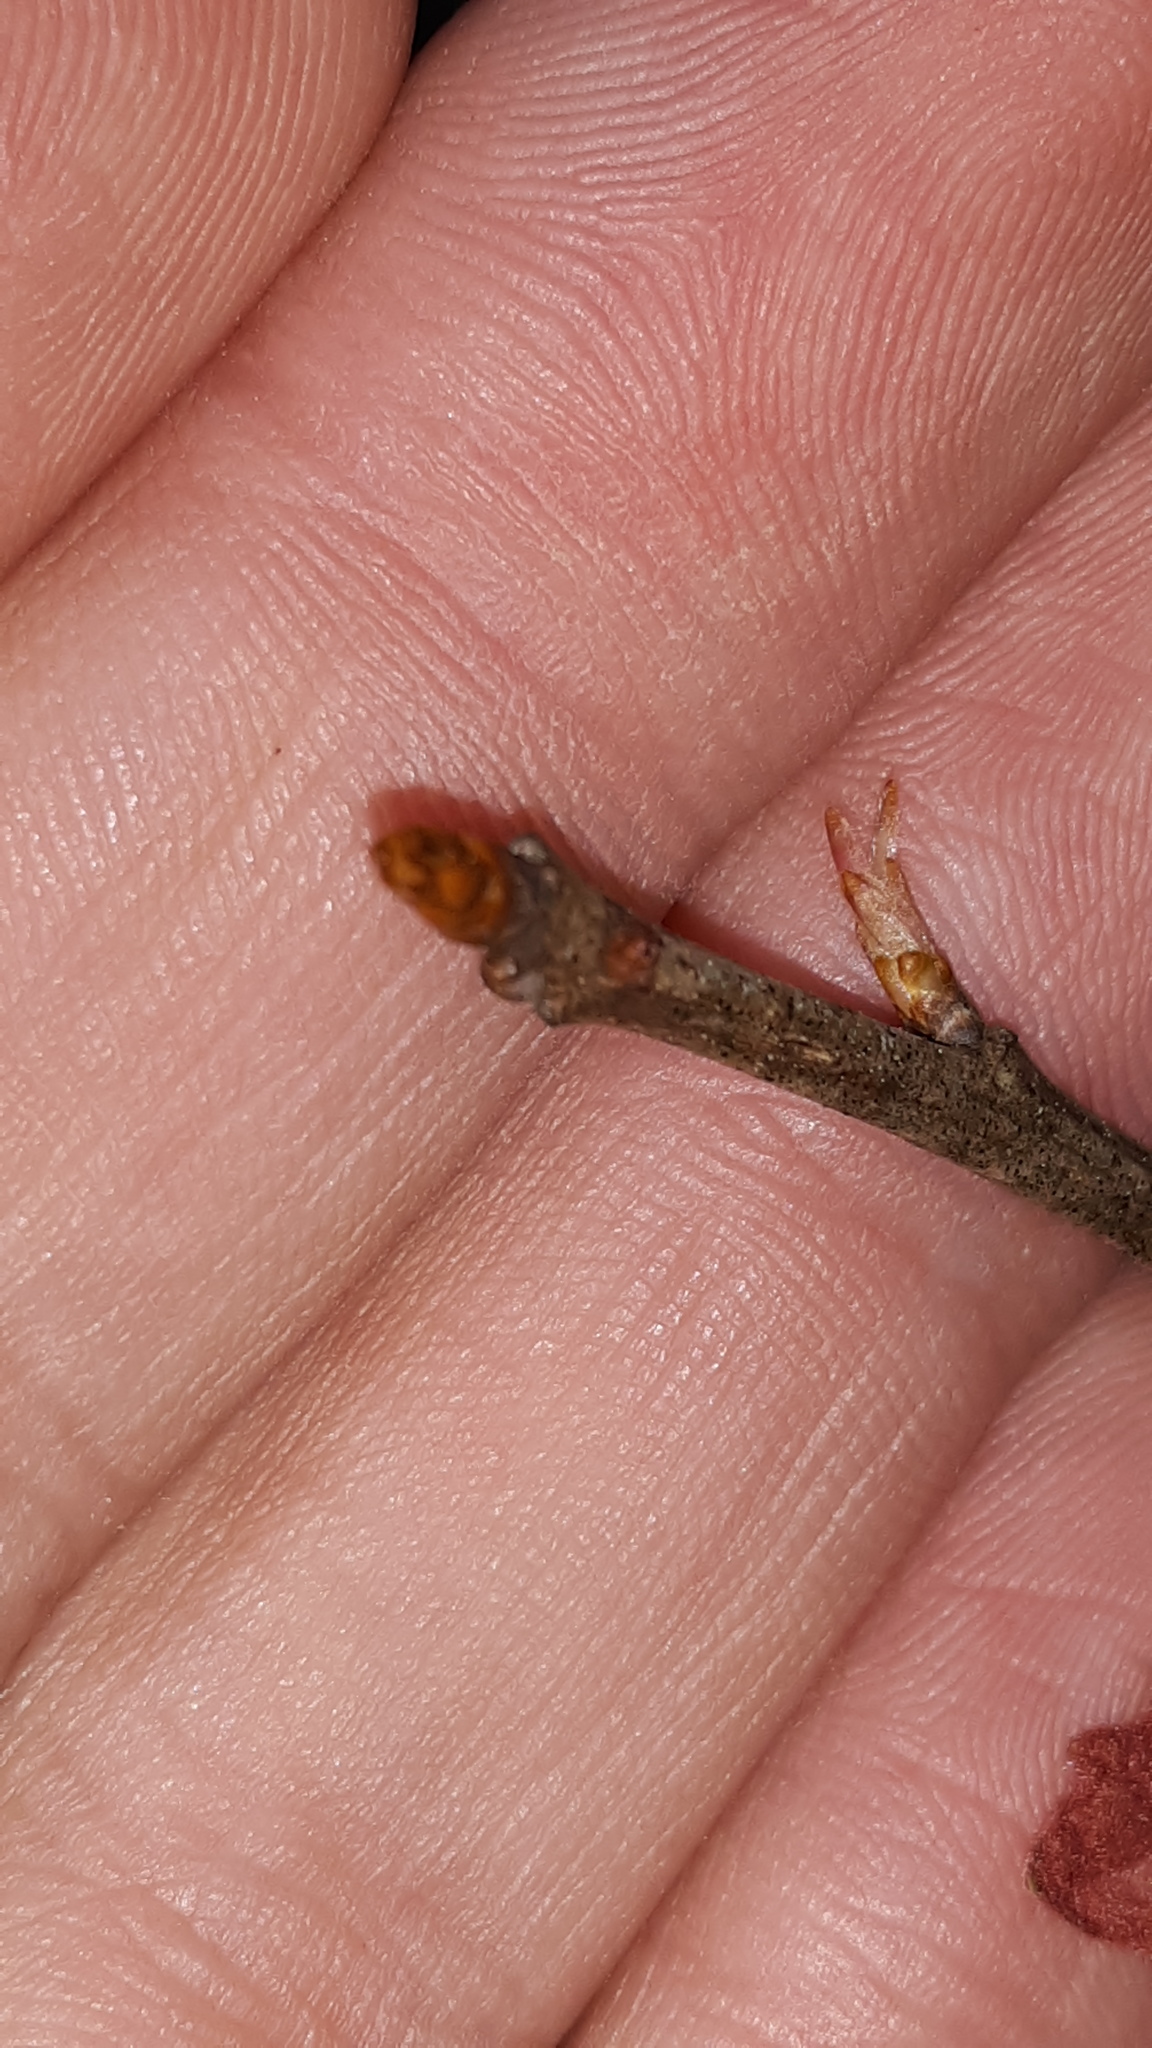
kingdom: Plantae
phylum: Tracheophyta
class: Magnoliopsida
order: Fagales
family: Fagaceae
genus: Quercus
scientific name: Quercus alba
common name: White oak
